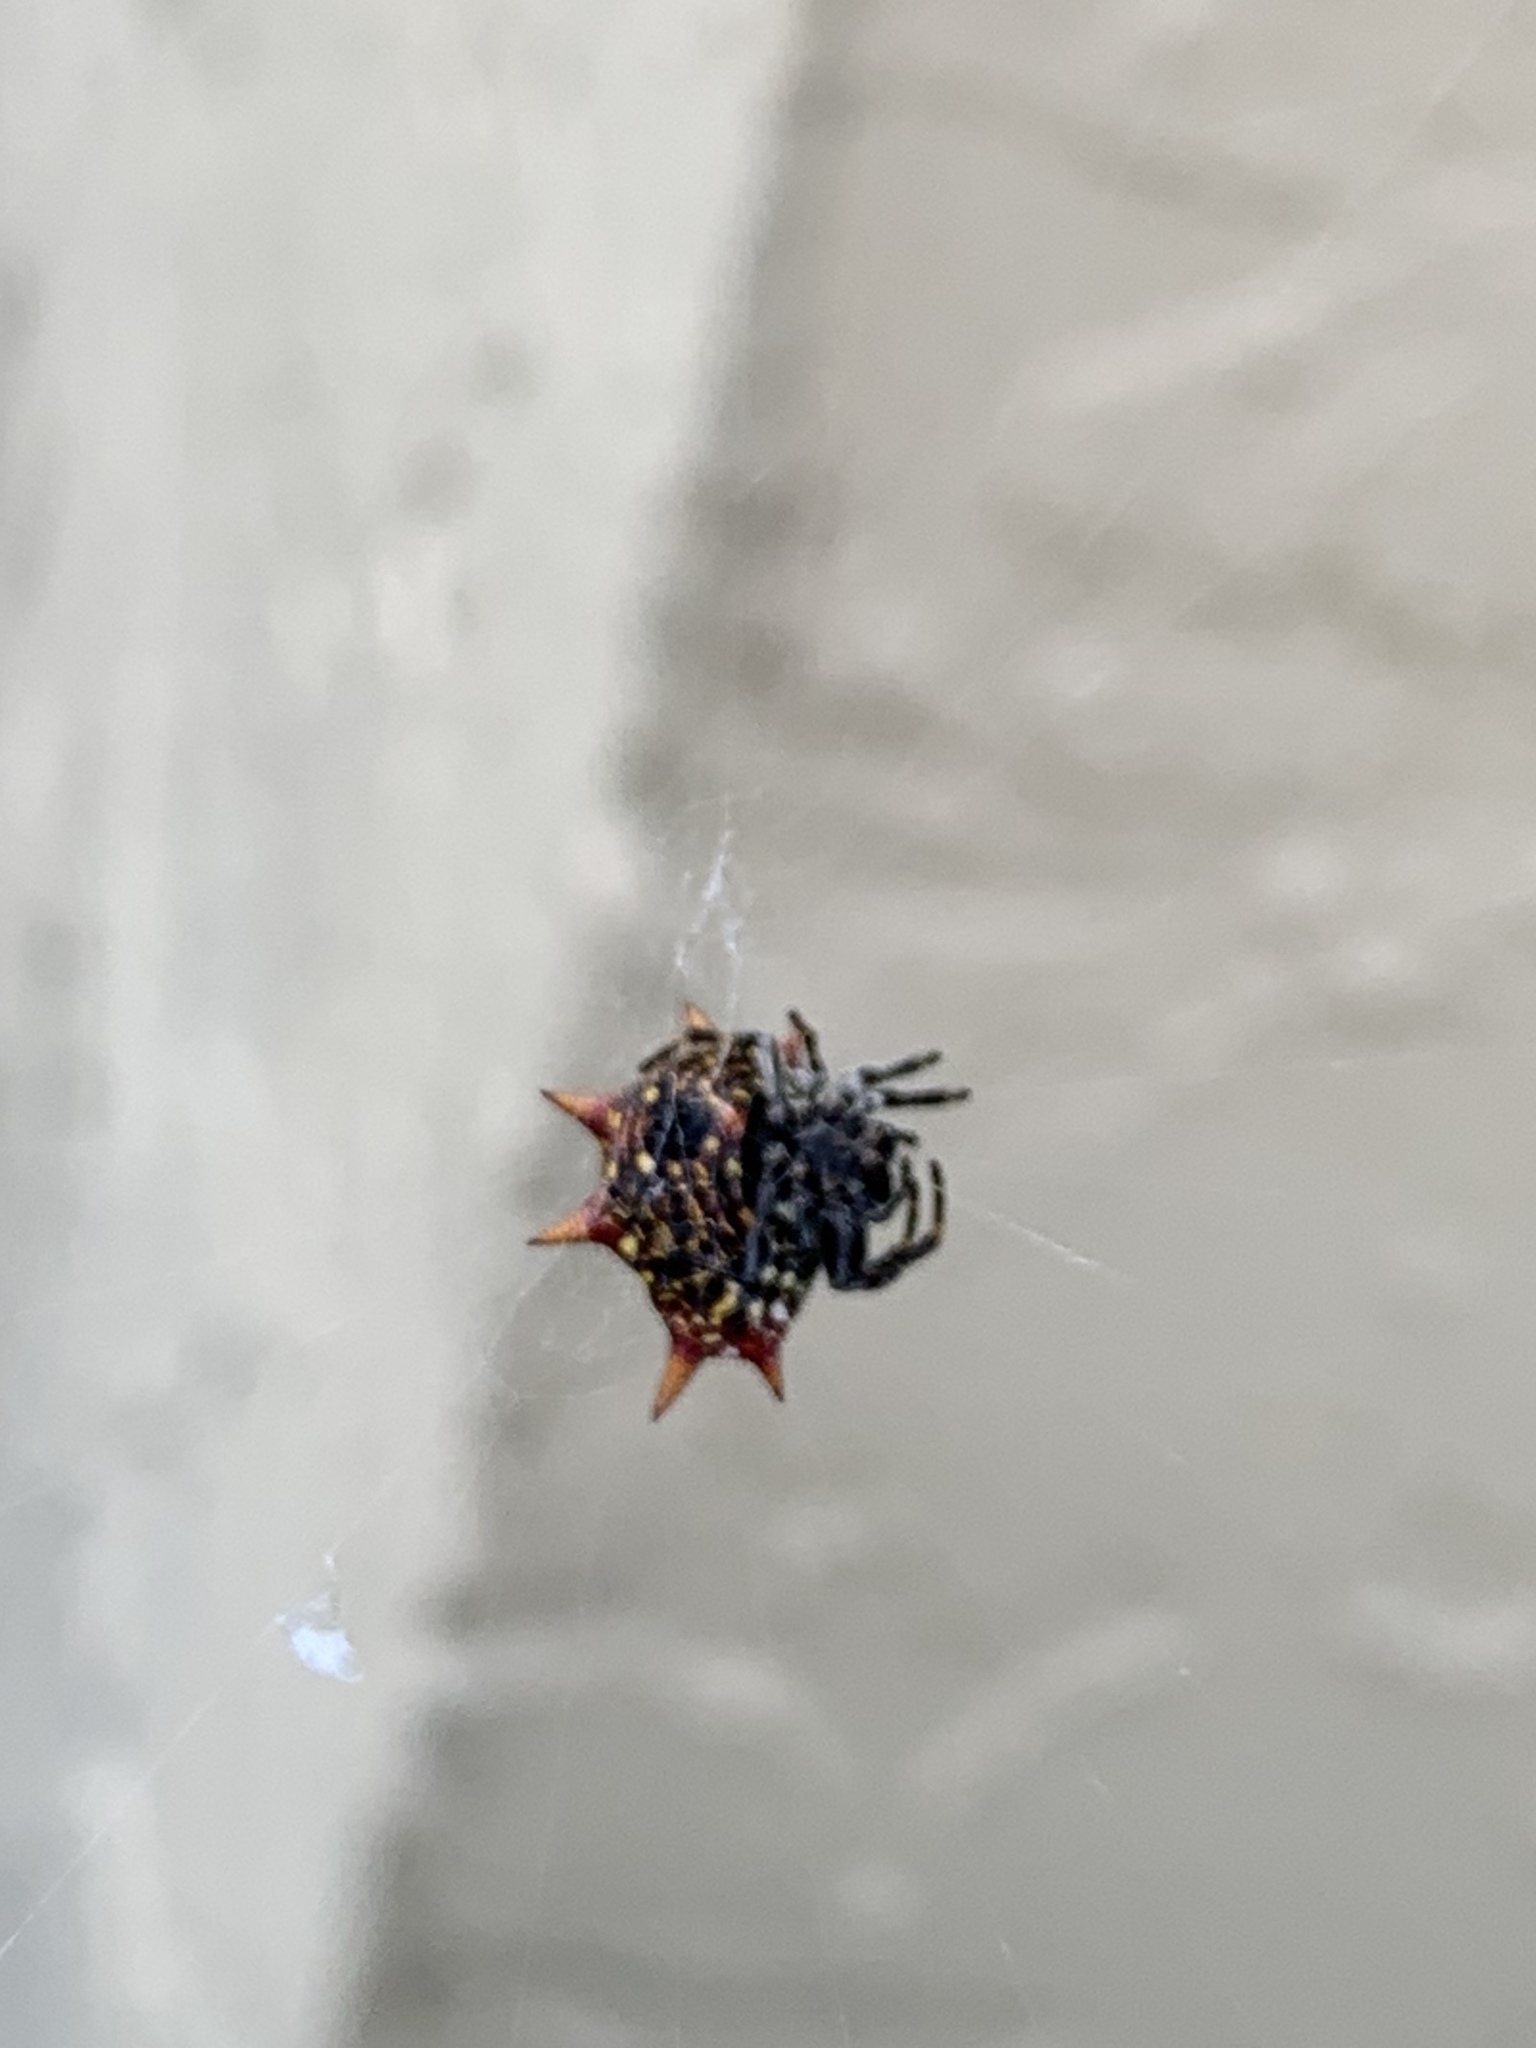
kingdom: Animalia
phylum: Arthropoda
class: Arachnida
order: Araneae
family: Araneidae
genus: Gasteracantha
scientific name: Gasteracantha cancriformis
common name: Orb weavers
